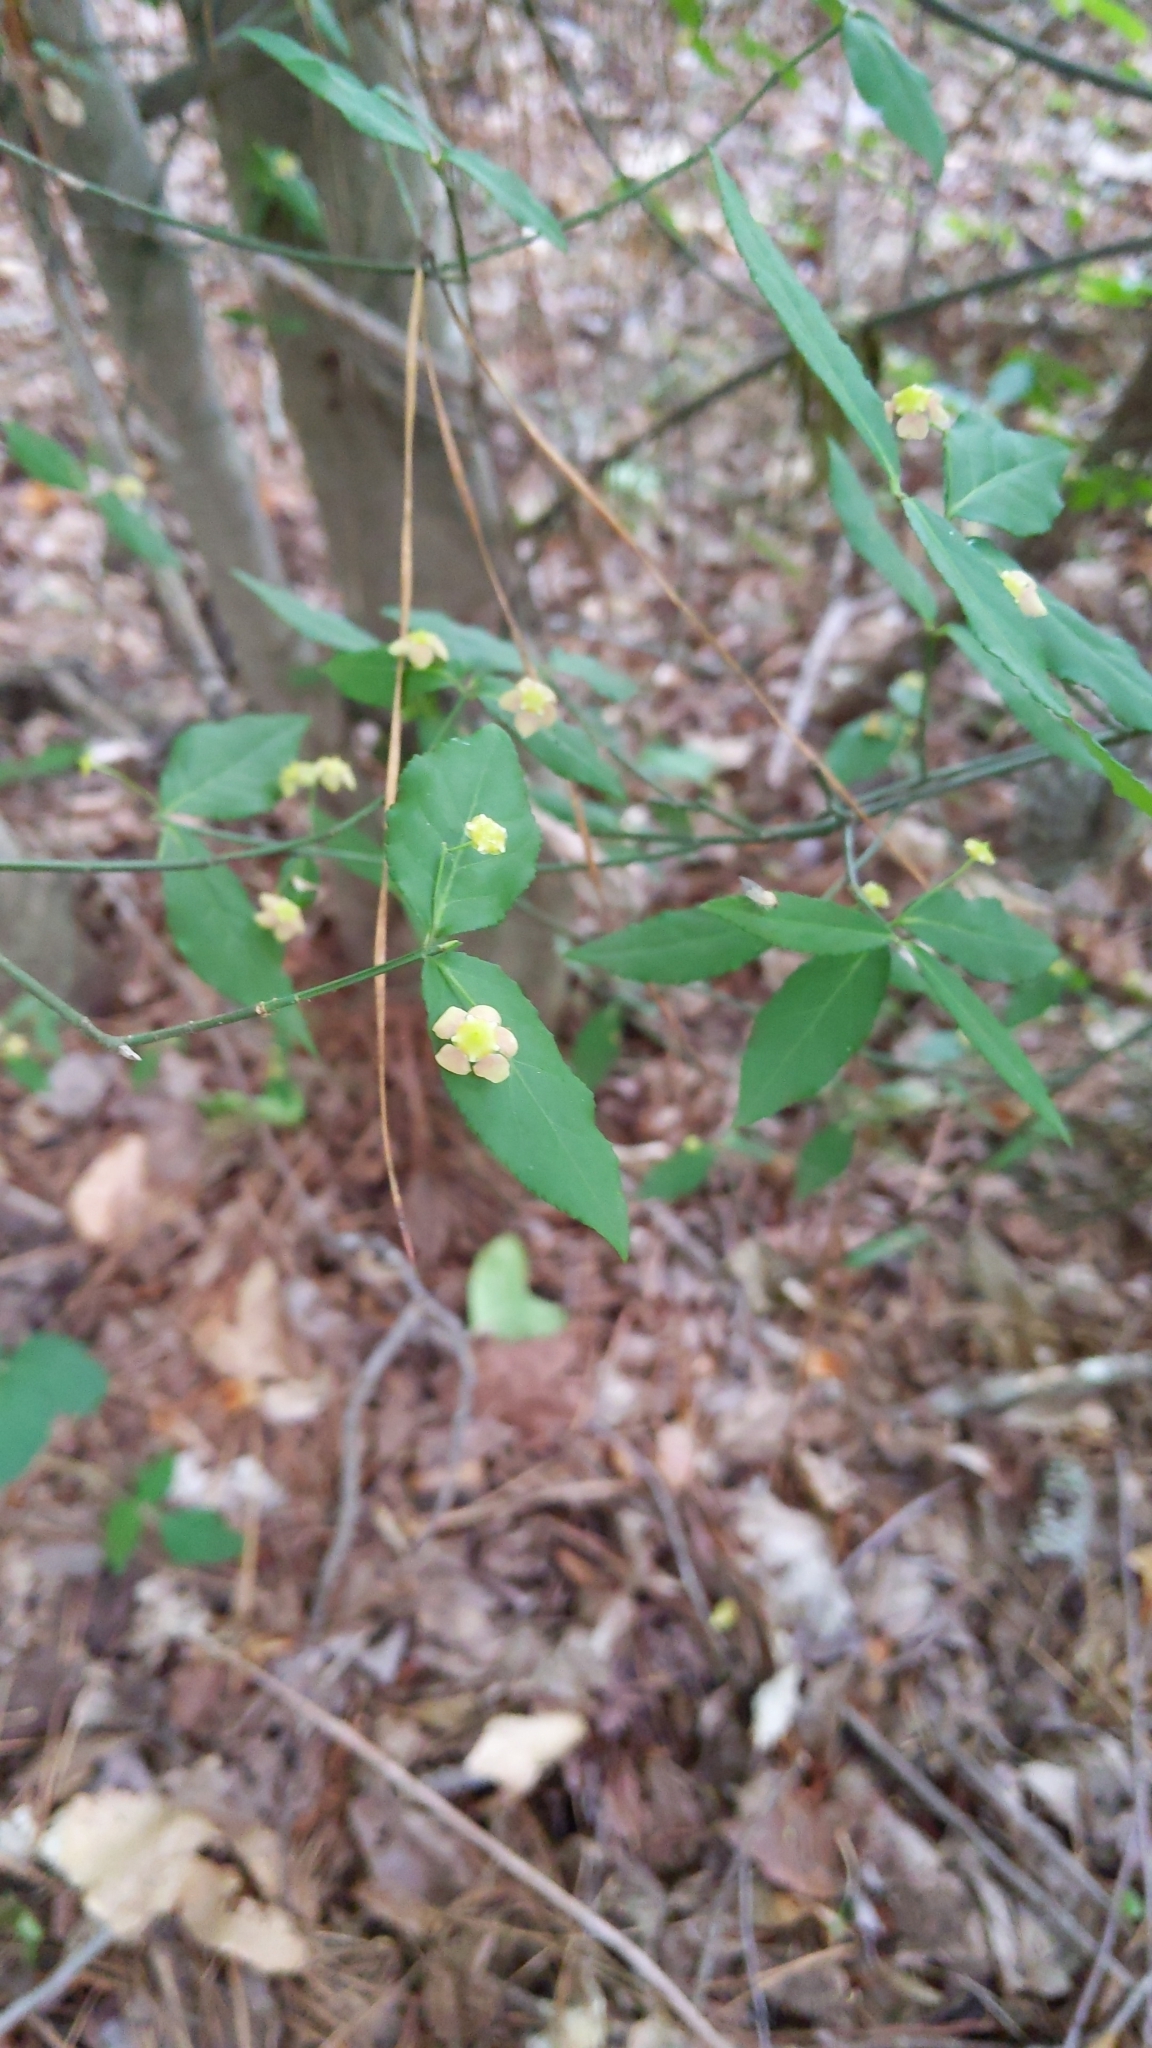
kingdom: Plantae
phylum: Tracheophyta
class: Magnoliopsida
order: Celastrales
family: Celastraceae
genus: Euonymus
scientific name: Euonymus americanus
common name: Bursting-heart
